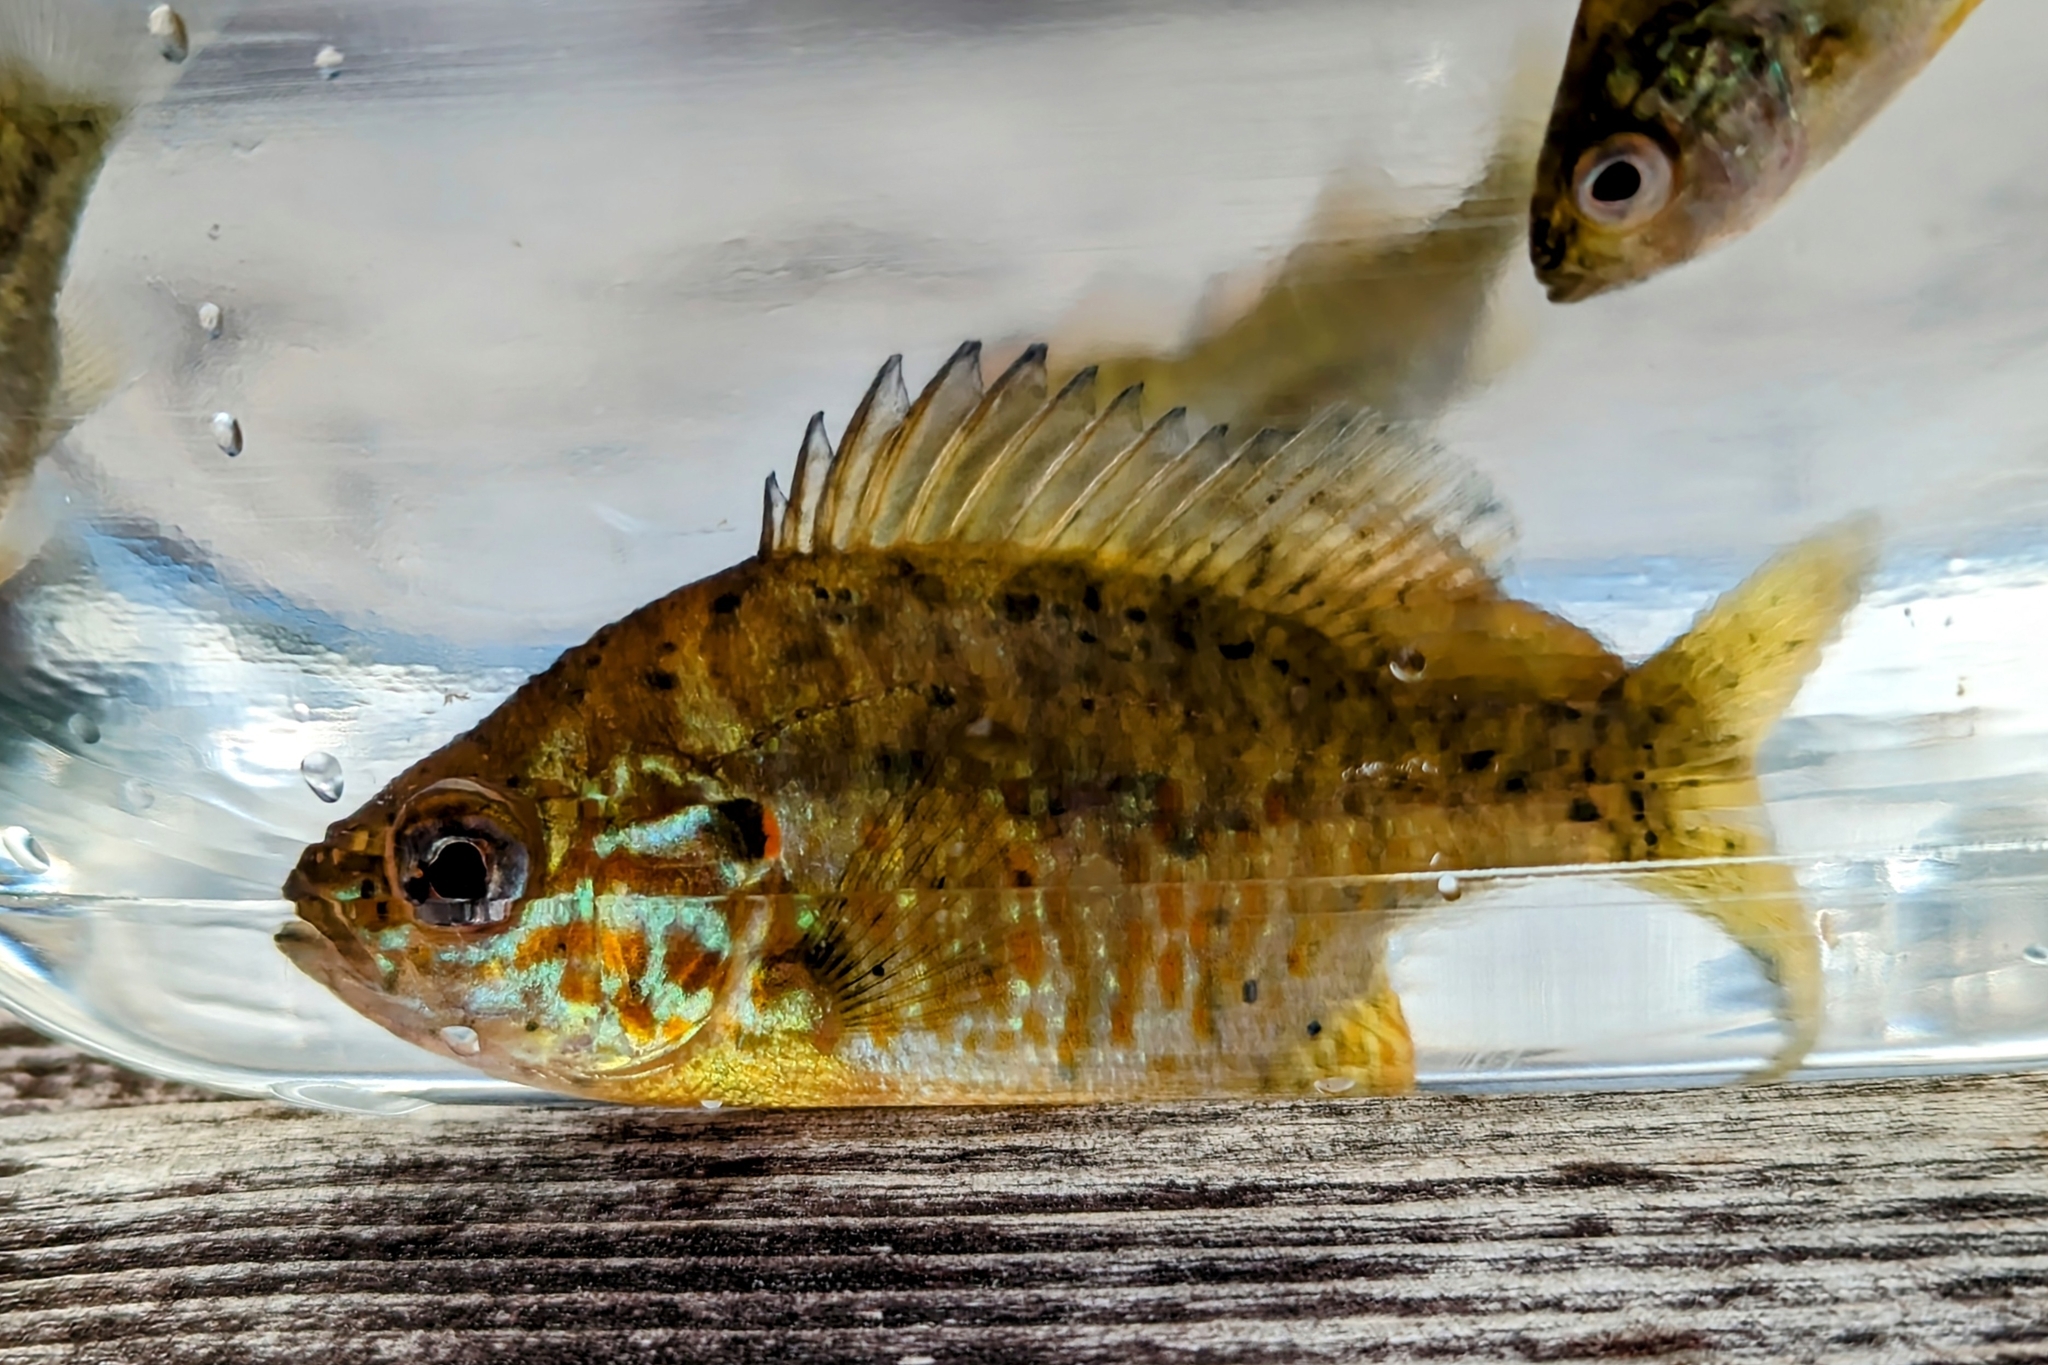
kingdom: Animalia
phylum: Chordata
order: Perciformes
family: Centrarchidae
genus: Lepomis
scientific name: Lepomis gibbosus
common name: Pumpkinseed
